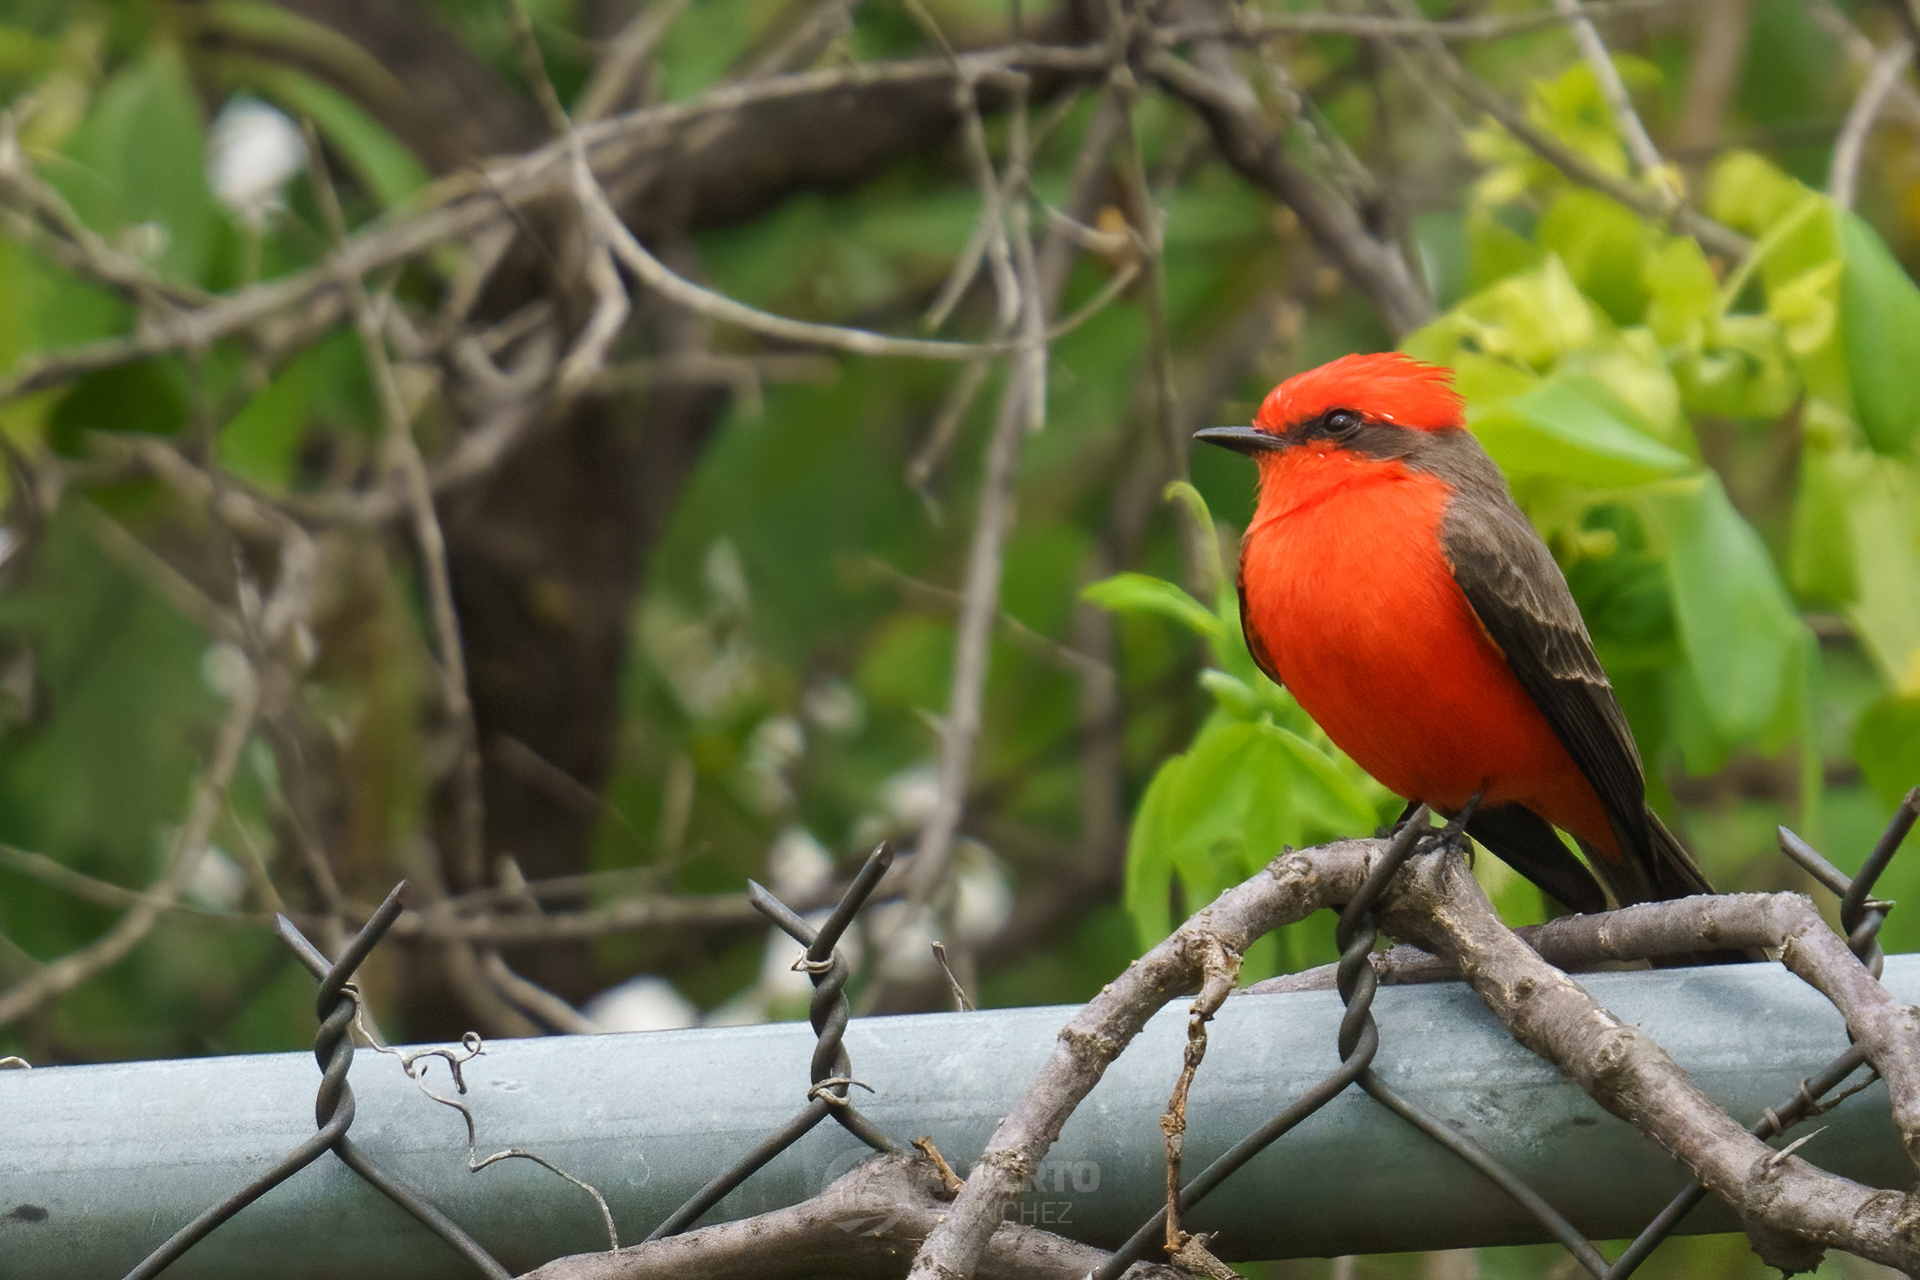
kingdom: Animalia
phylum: Chordata
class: Aves
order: Passeriformes
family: Tyrannidae
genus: Pyrocephalus
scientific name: Pyrocephalus rubinus
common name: Vermilion flycatcher
